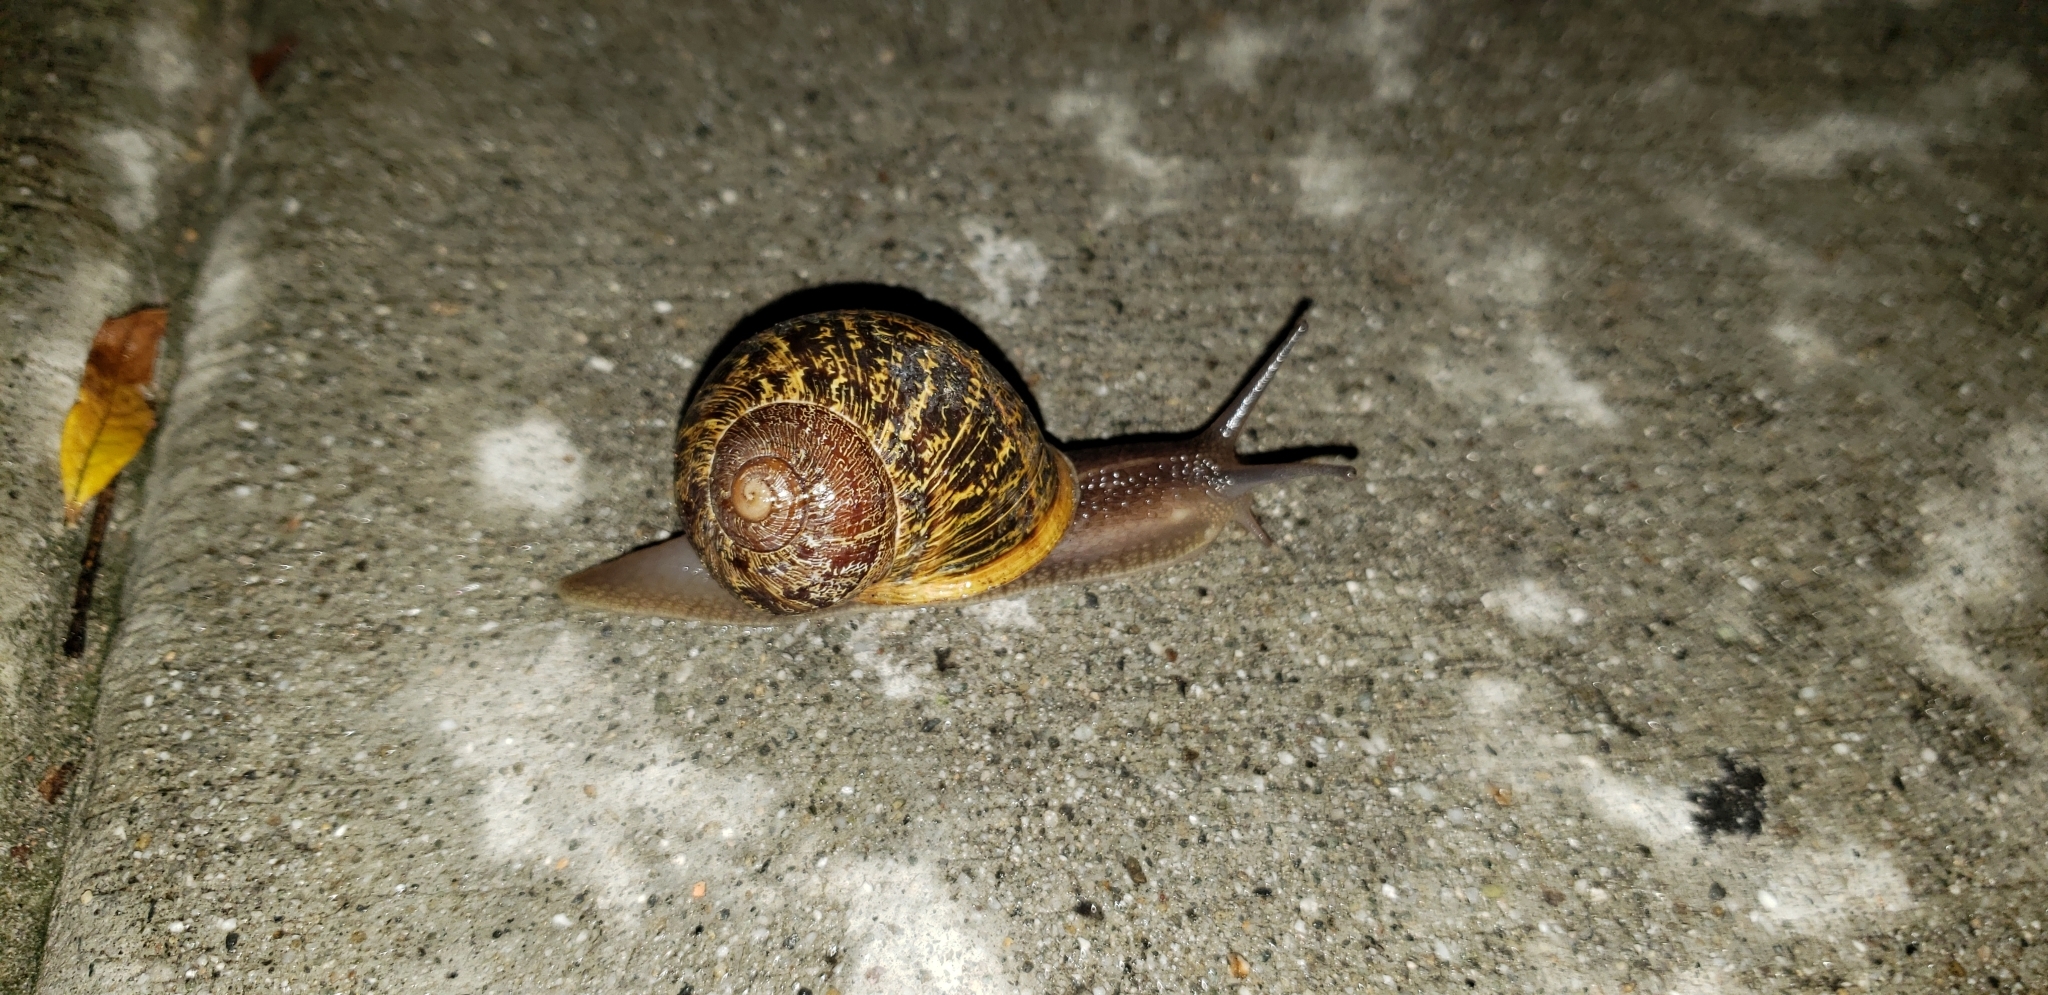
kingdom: Animalia
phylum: Mollusca
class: Gastropoda
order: Stylommatophora
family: Helicidae
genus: Cornu
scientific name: Cornu aspersum
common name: Brown garden snail
